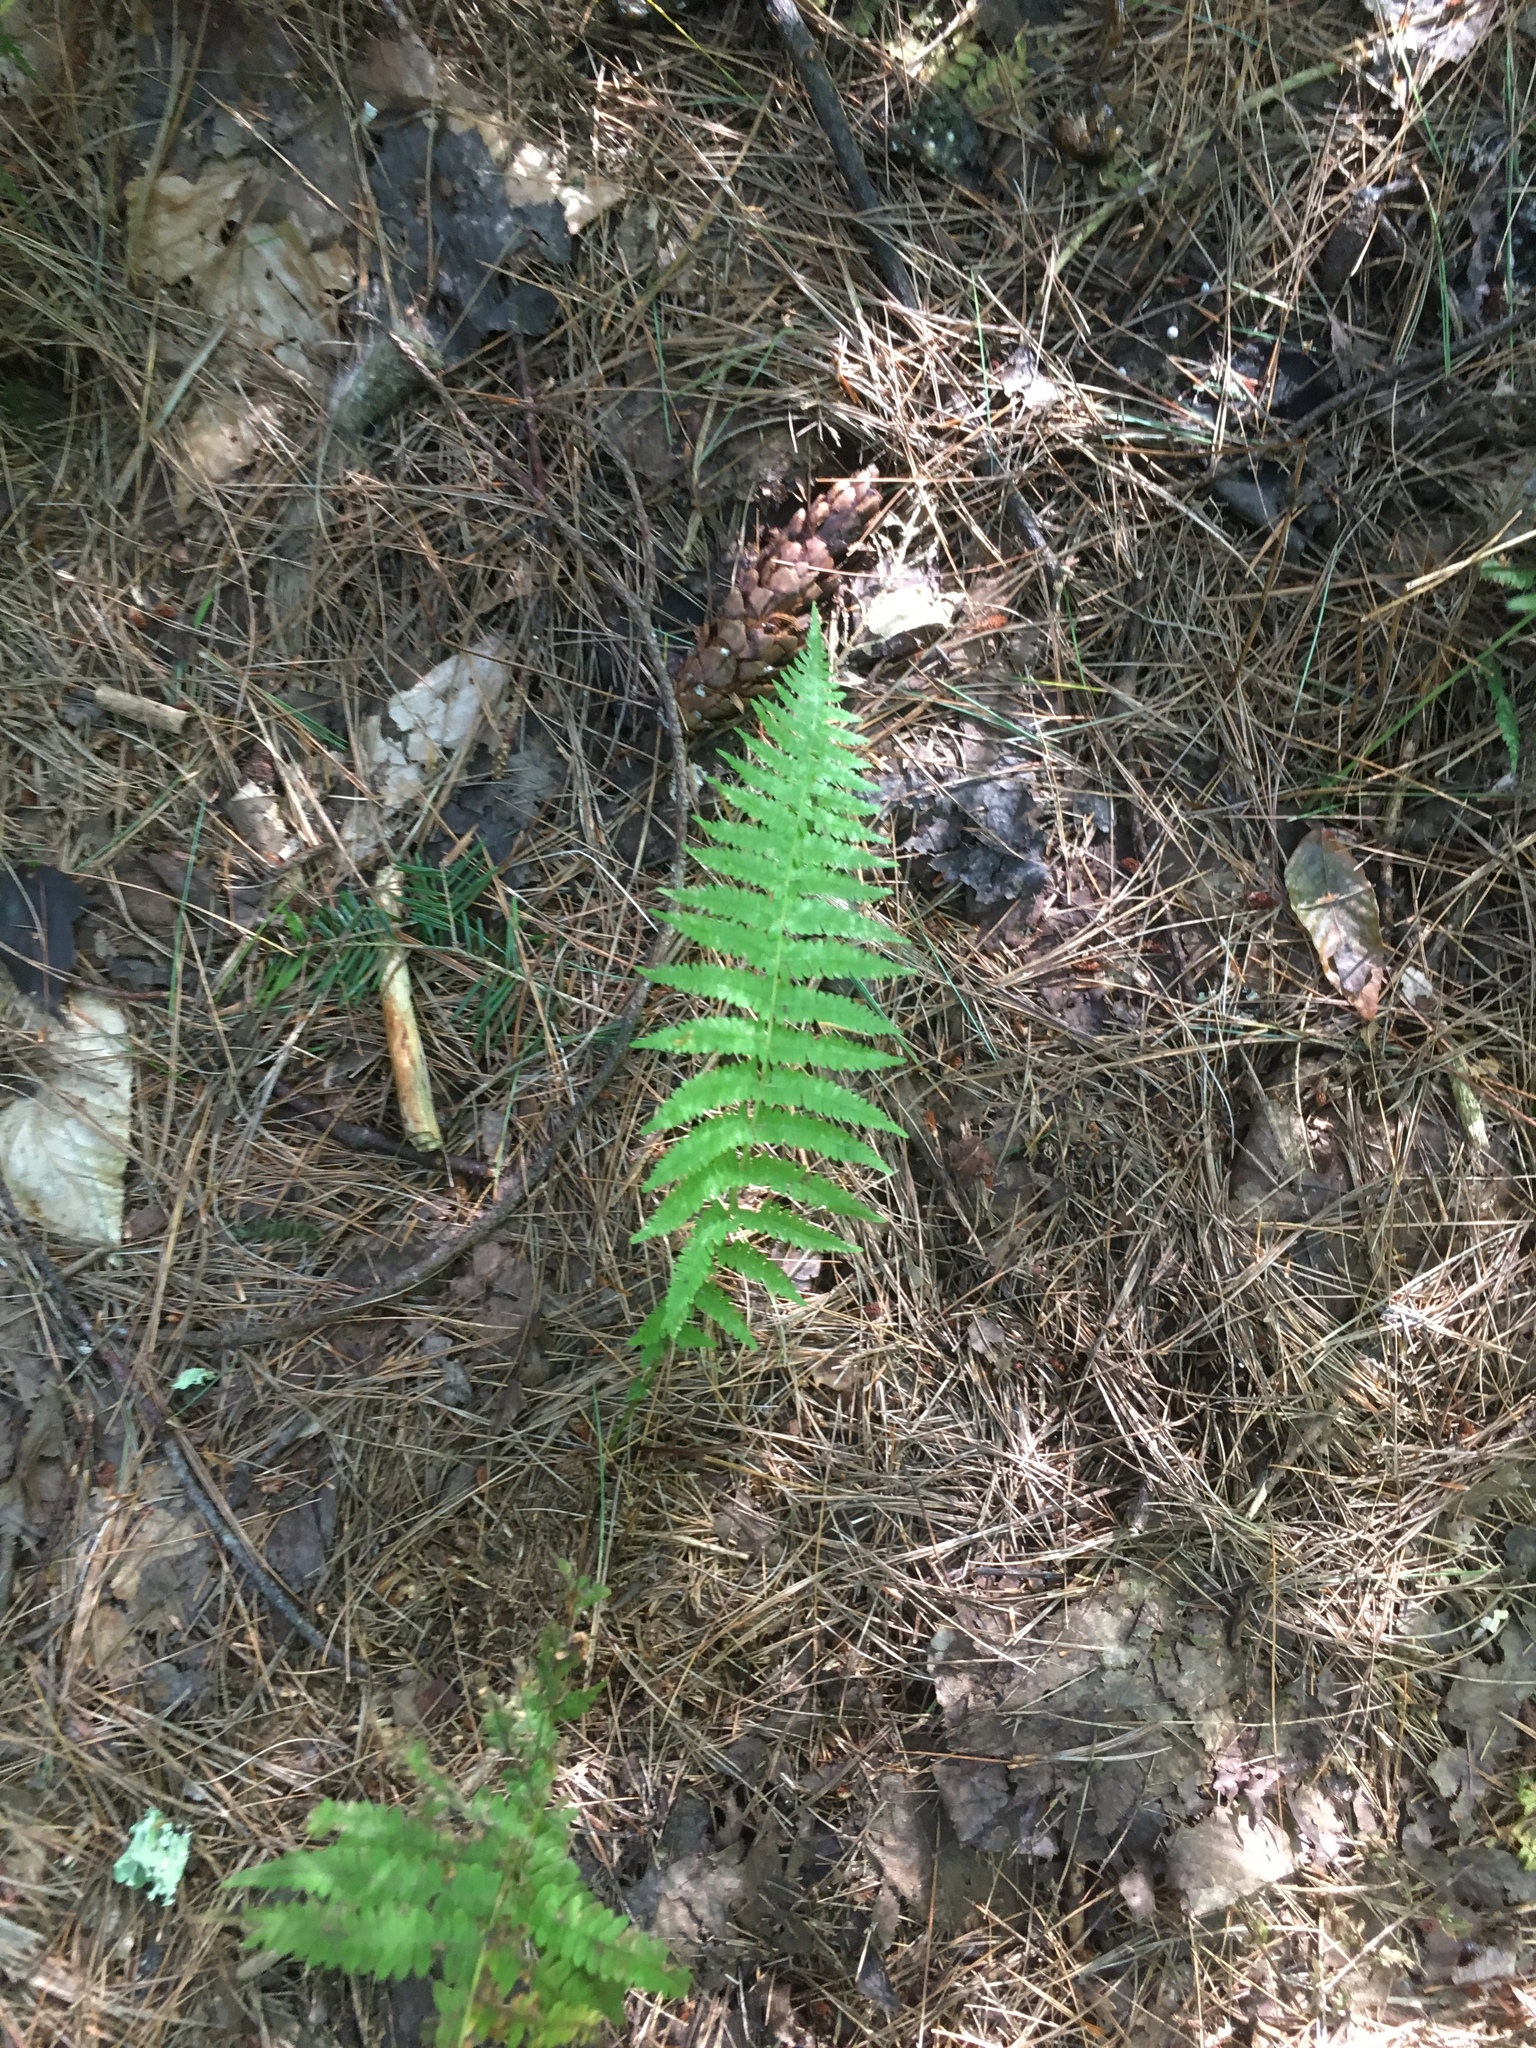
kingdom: Plantae
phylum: Tracheophyta
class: Polypodiopsida
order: Polypodiales
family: Thelypteridaceae
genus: Amauropelta
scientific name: Amauropelta noveboracensis
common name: New york fern
